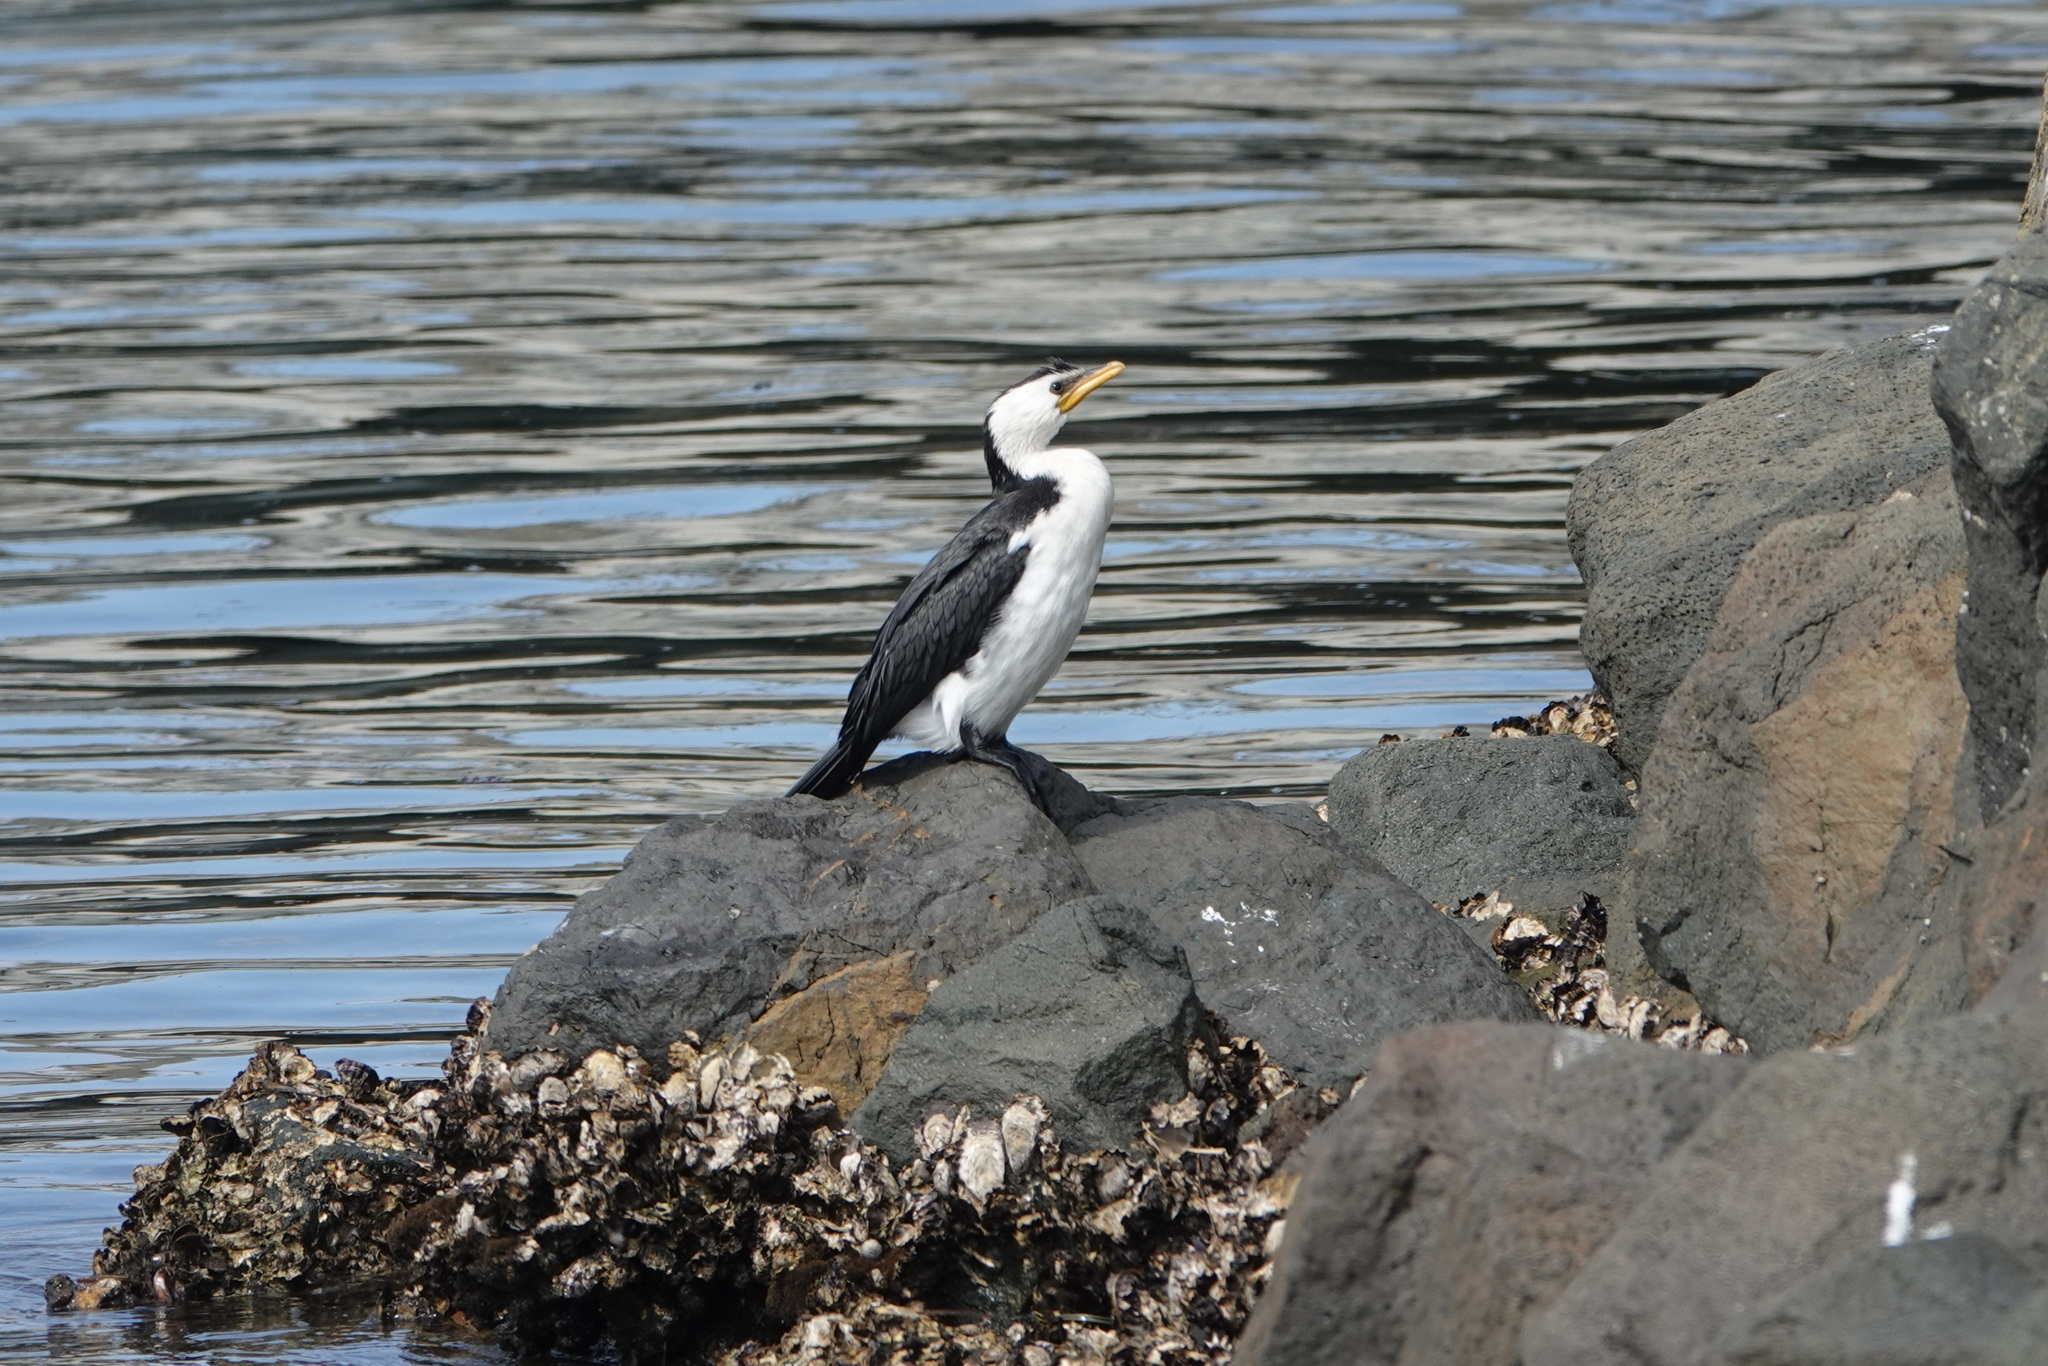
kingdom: Animalia
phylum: Chordata
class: Aves
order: Suliformes
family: Phalacrocoracidae
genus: Microcarbo
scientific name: Microcarbo melanoleucos
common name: Little pied cormorant
